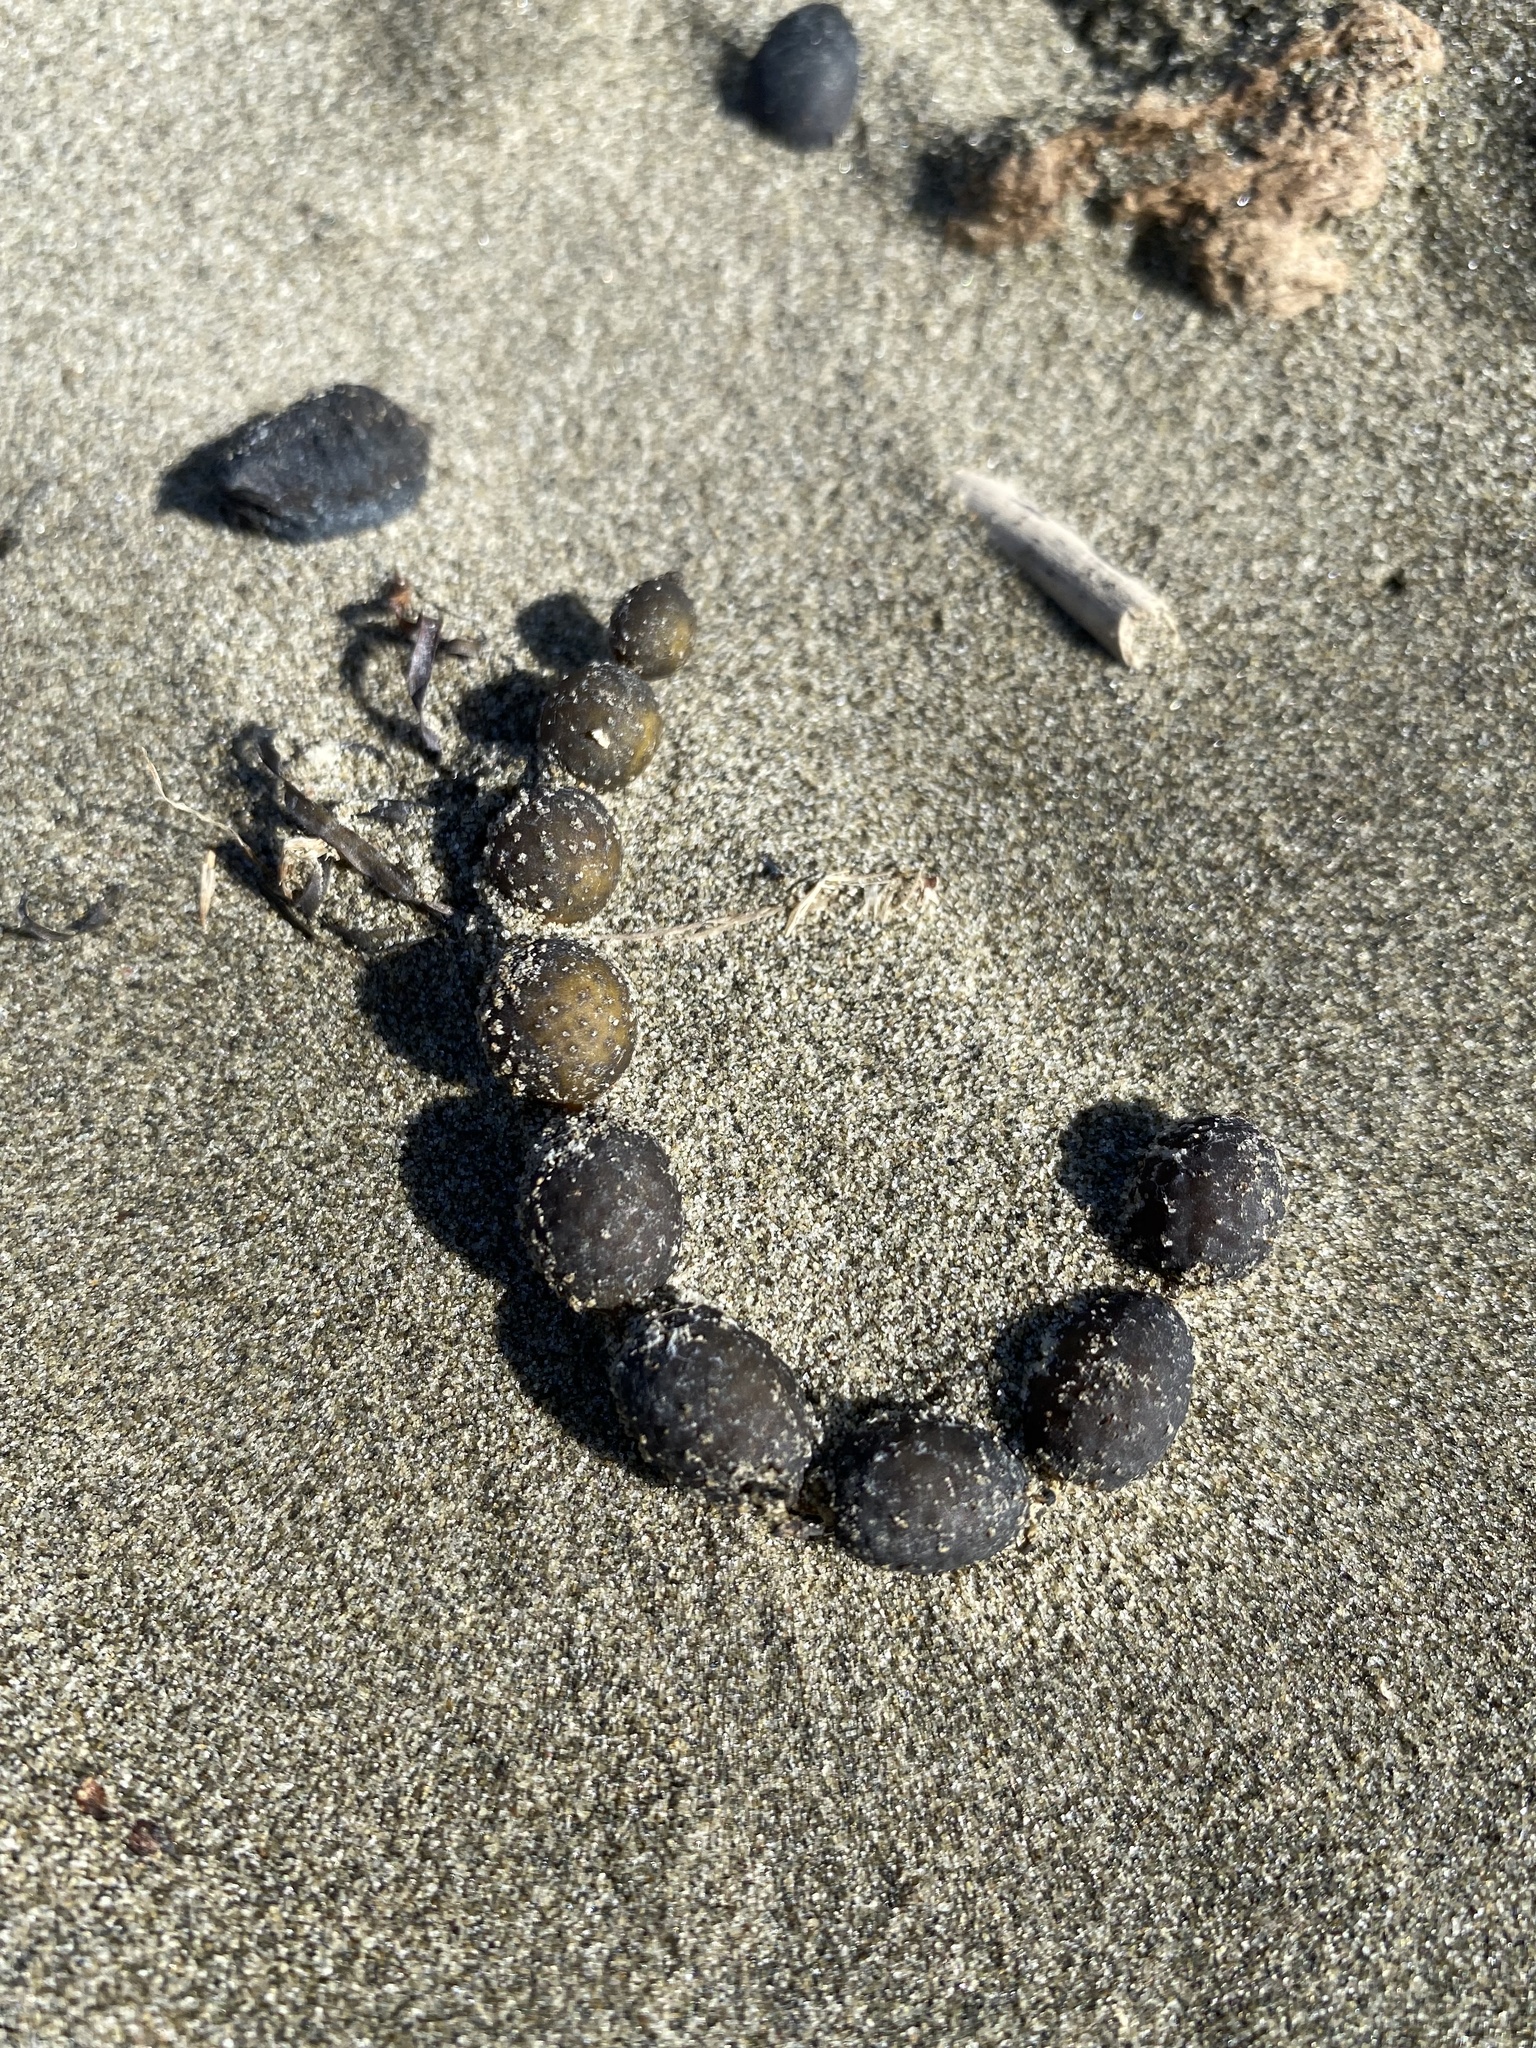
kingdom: Chromista
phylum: Ochrophyta
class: Phaeophyceae
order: Fucales
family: Hormosiraceae
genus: Hormosira
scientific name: Hormosira banksii
